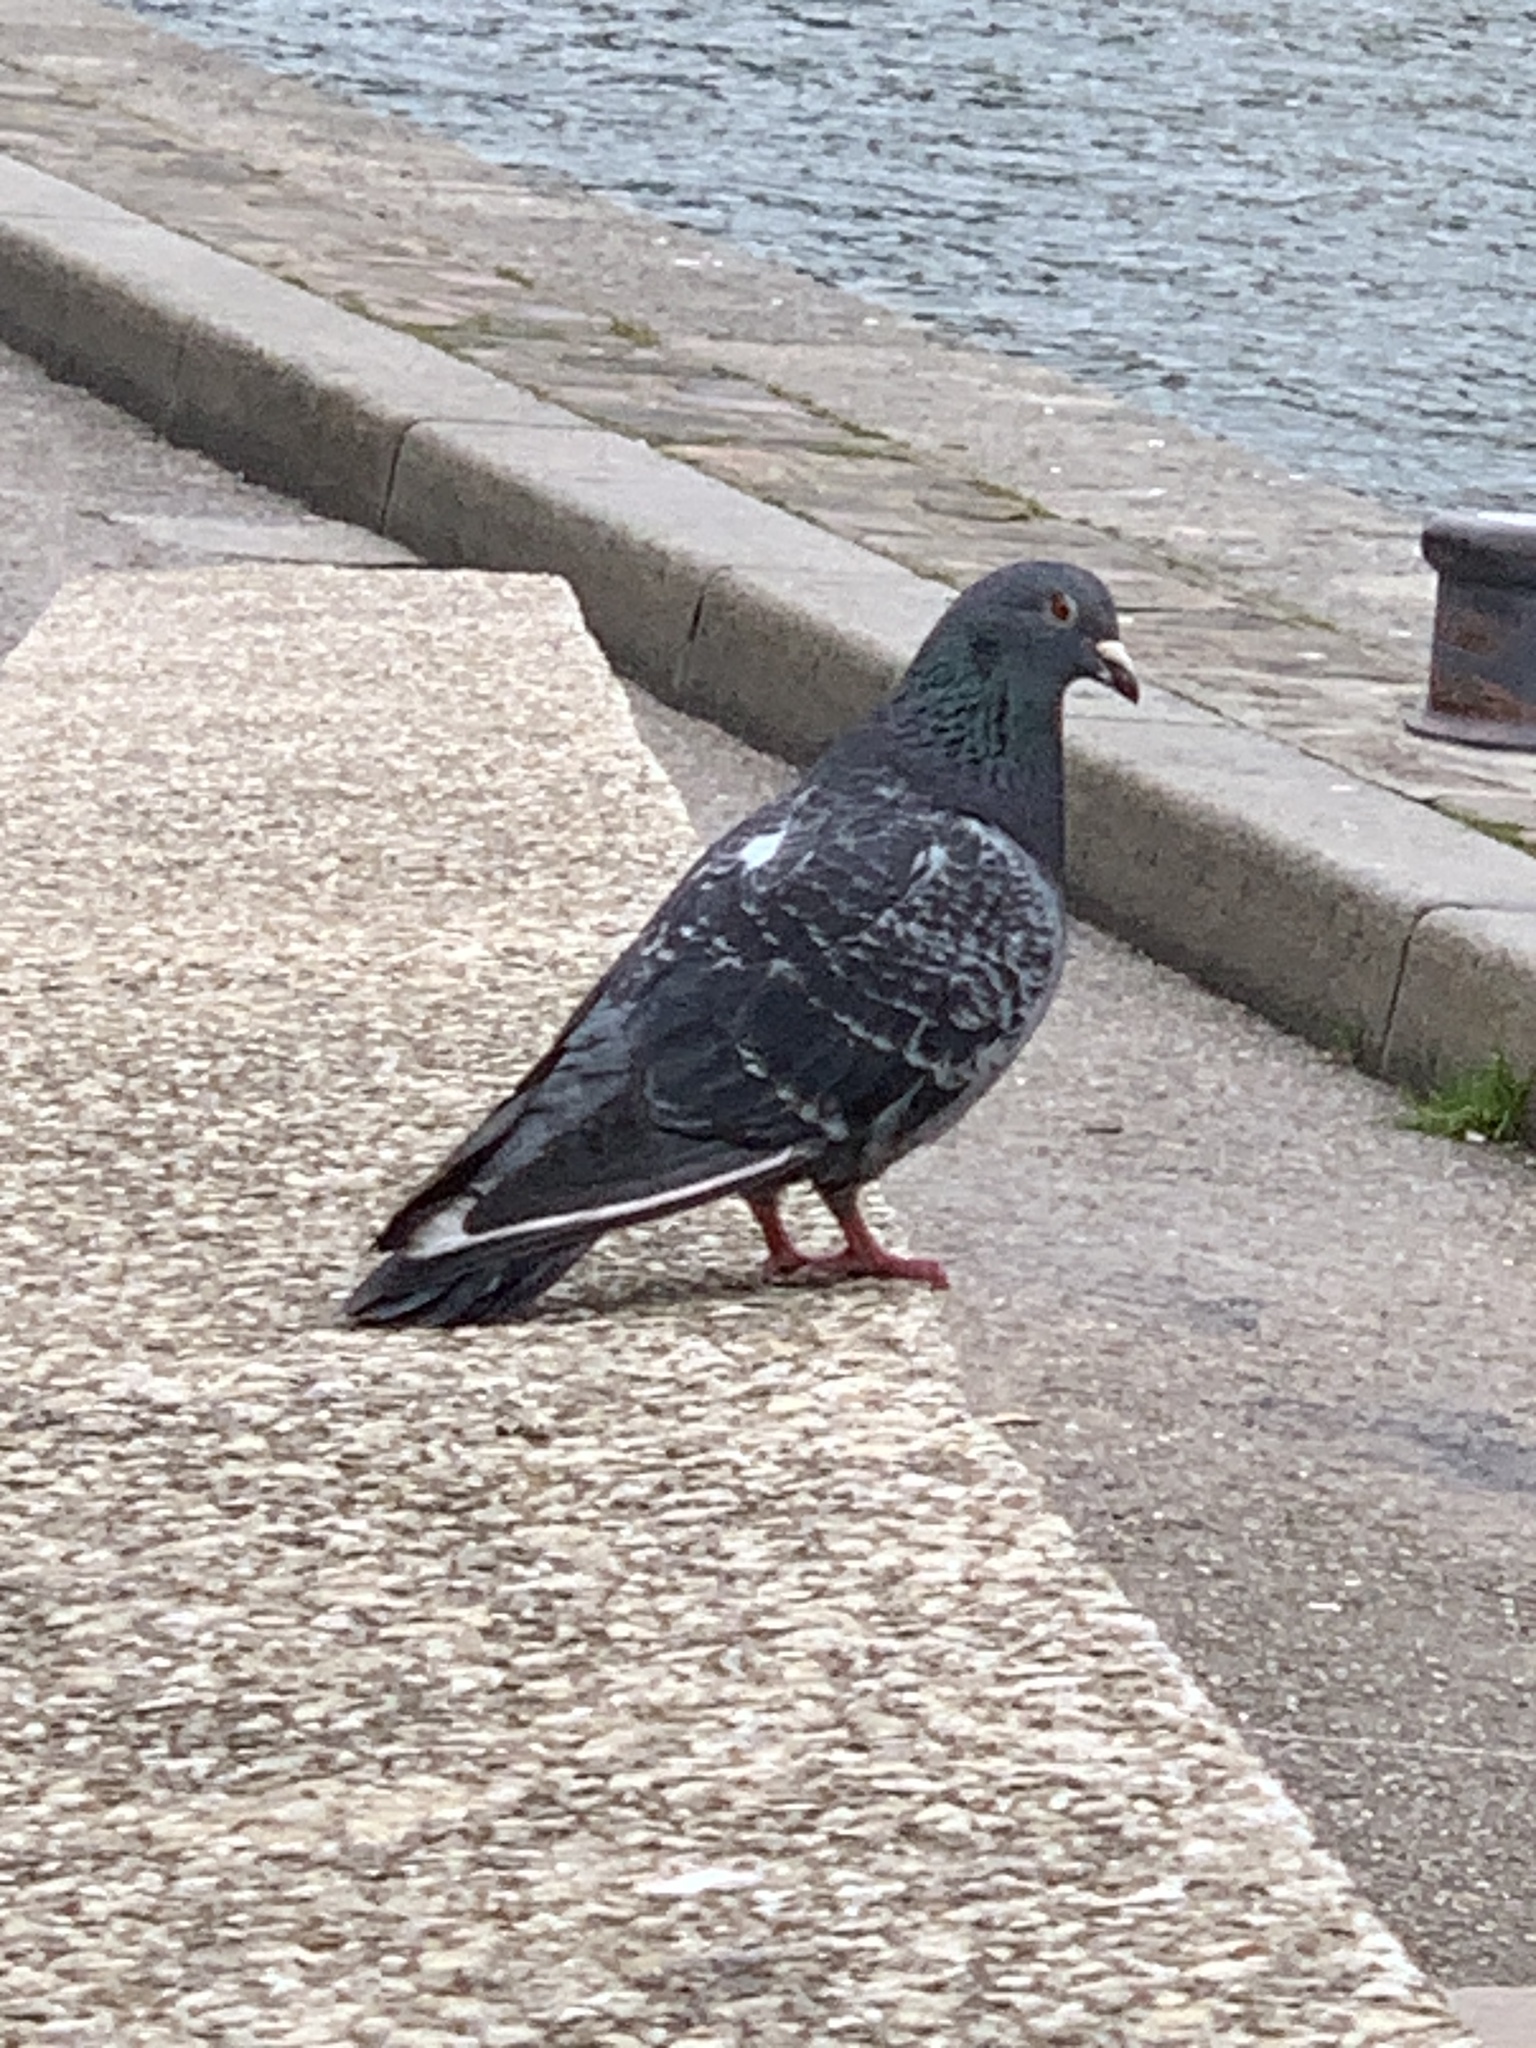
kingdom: Animalia
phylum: Chordata
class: Aves
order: Columbiformes
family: Columbidae
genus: Columba
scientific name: Columba livia
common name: Rock pigeon
